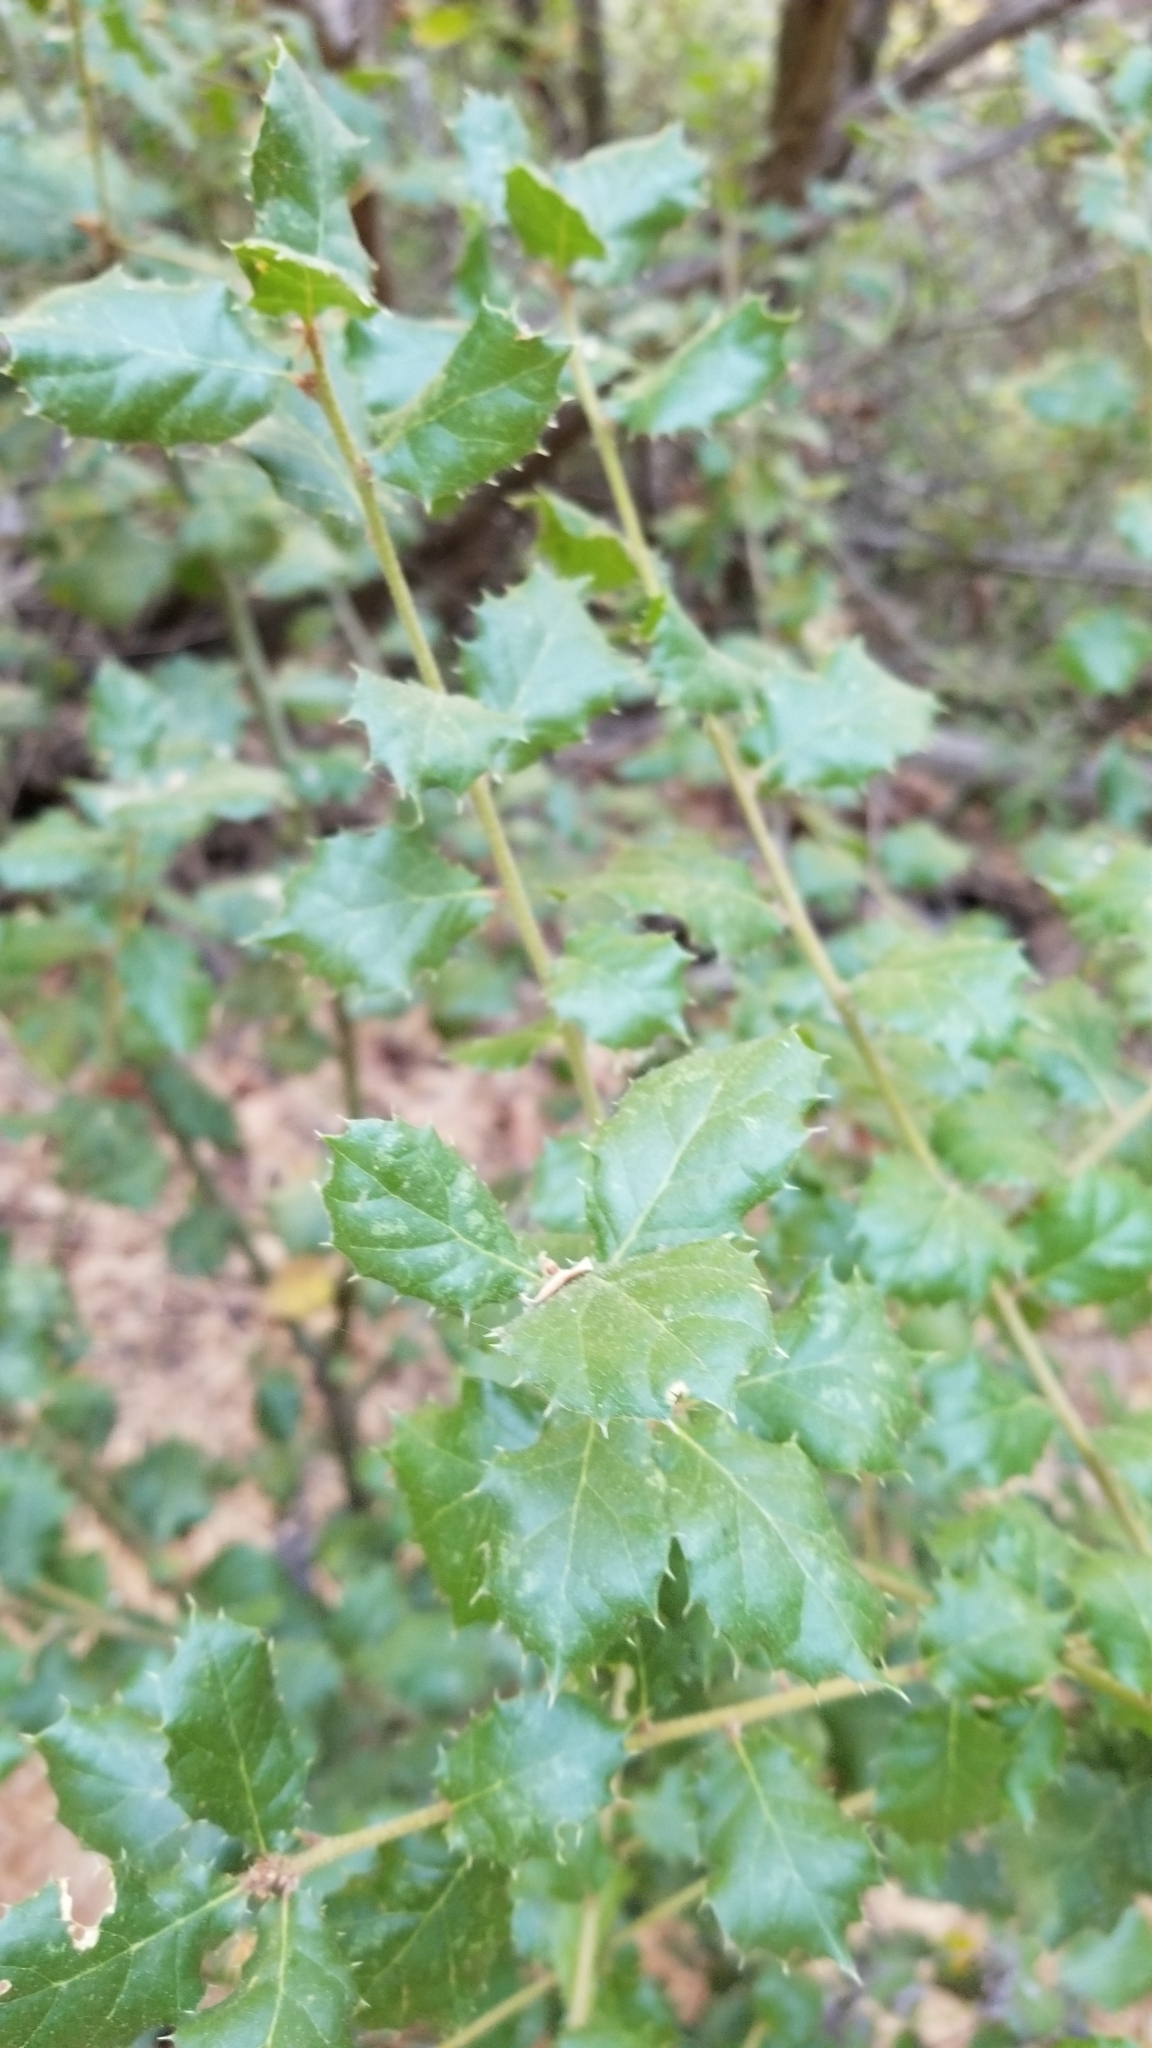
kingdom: Plantae
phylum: Tracheophyta
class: Magnoliopsida
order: Fagales
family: Fagaceae
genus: Quercus
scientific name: Quercus agrifolia
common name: California live oak
